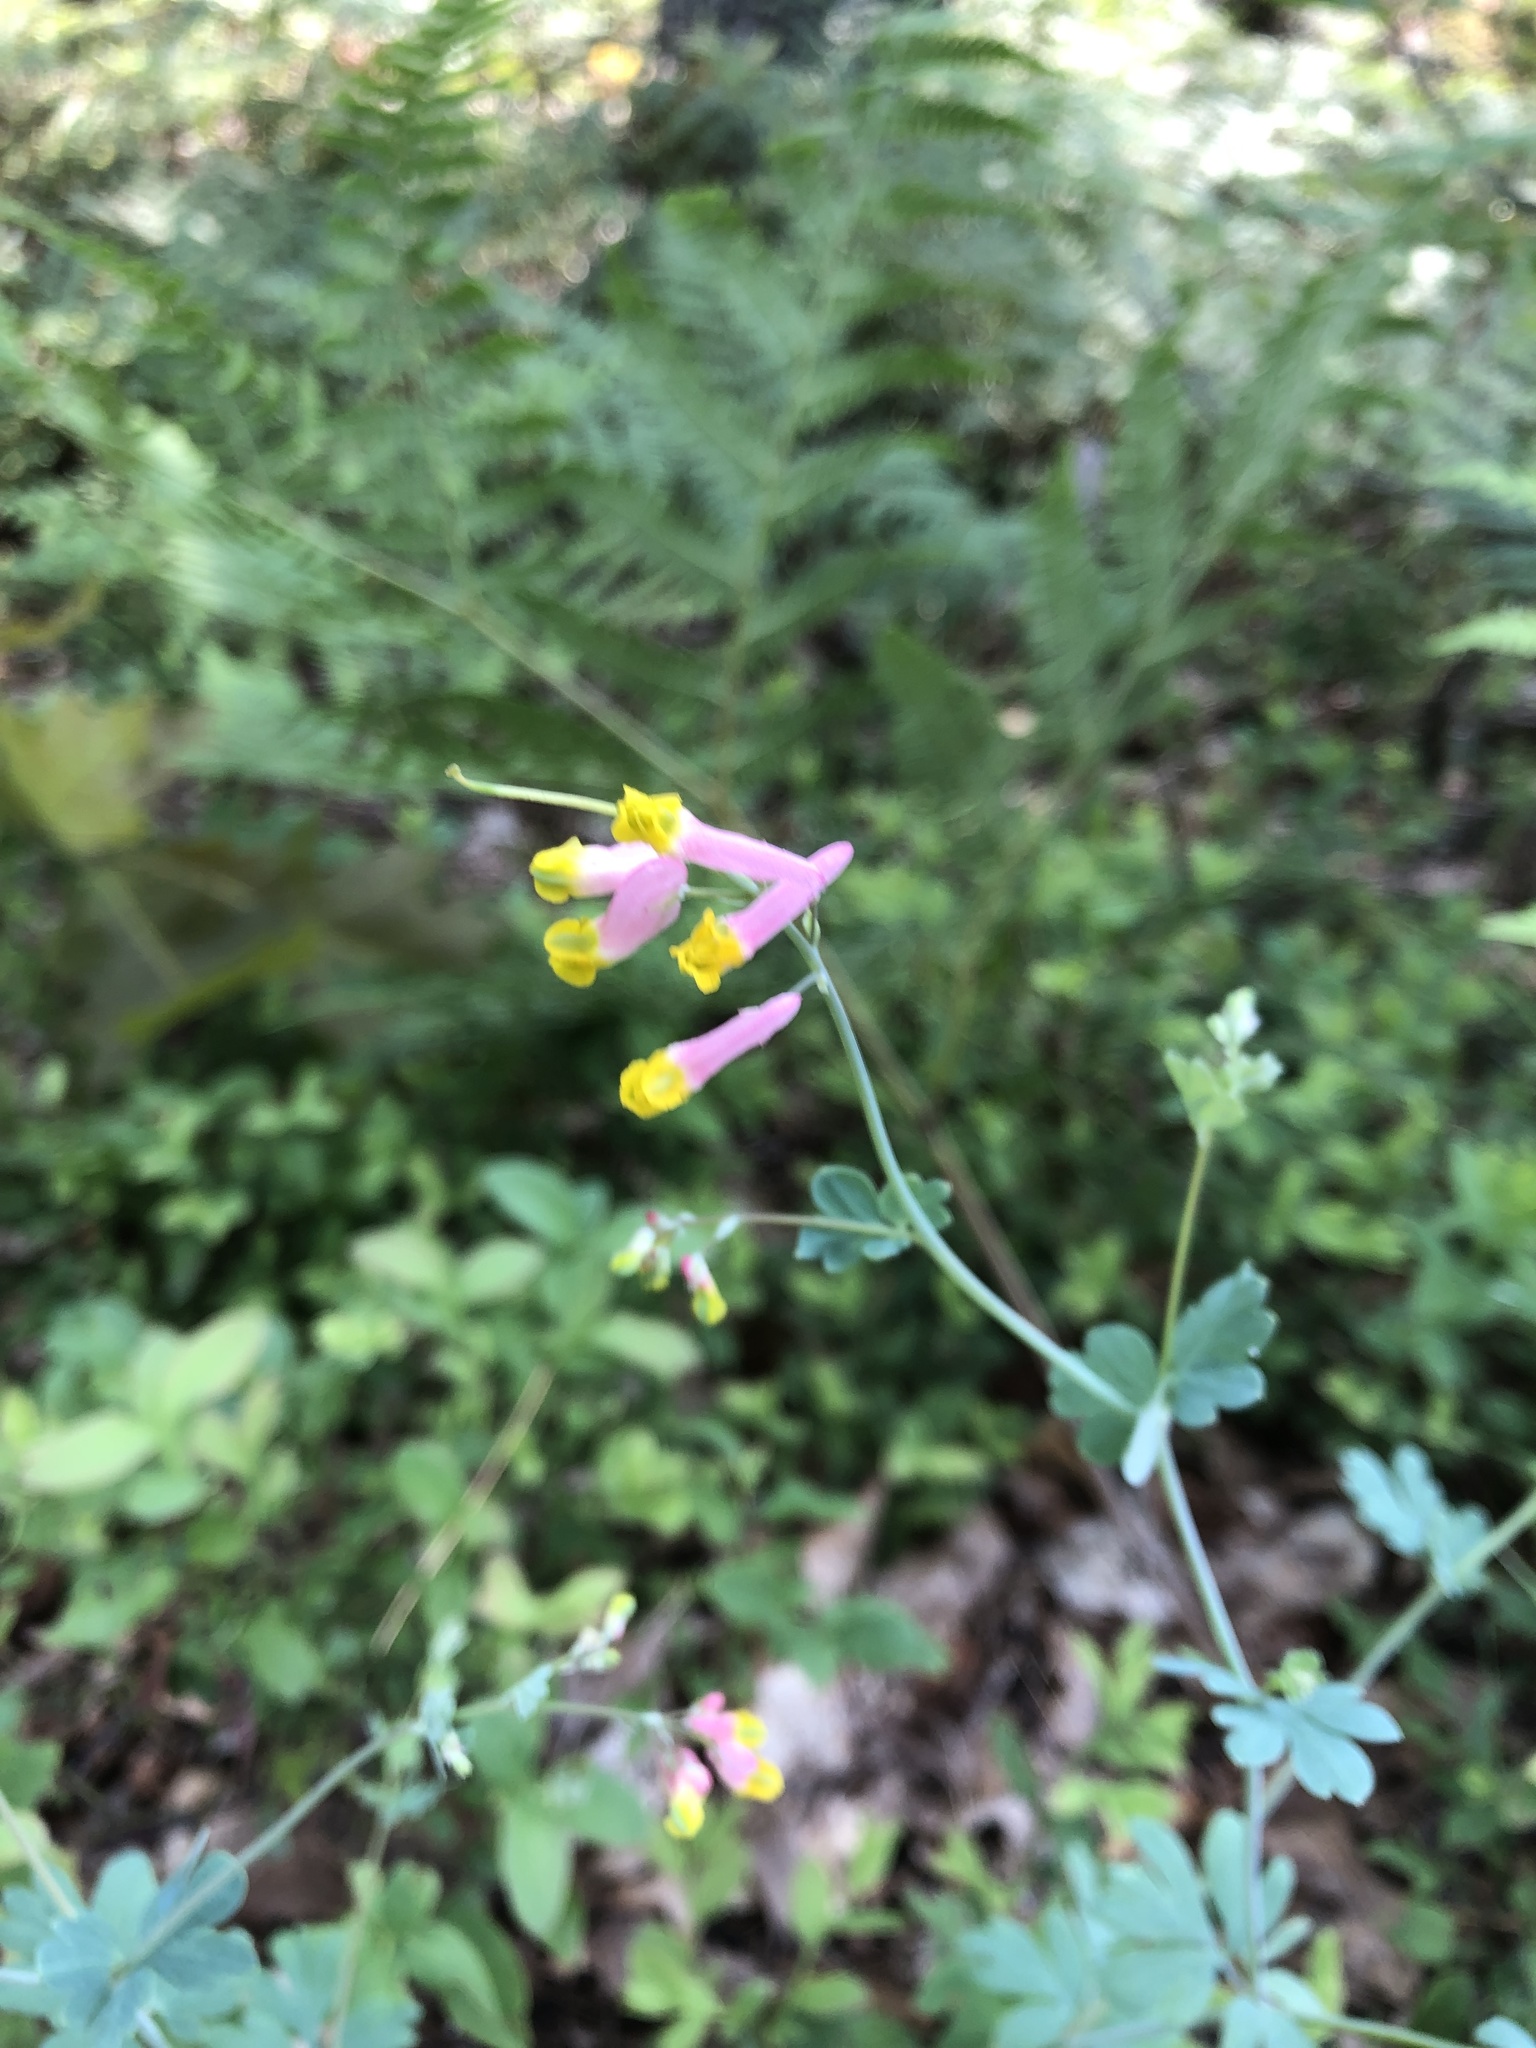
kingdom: Plantae
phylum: Tracheophyta
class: Magnoliopsida
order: Ranunculales
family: Papaveraceae
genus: Capnoides
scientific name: Capnoides sempervirens
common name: Rock harlequin
